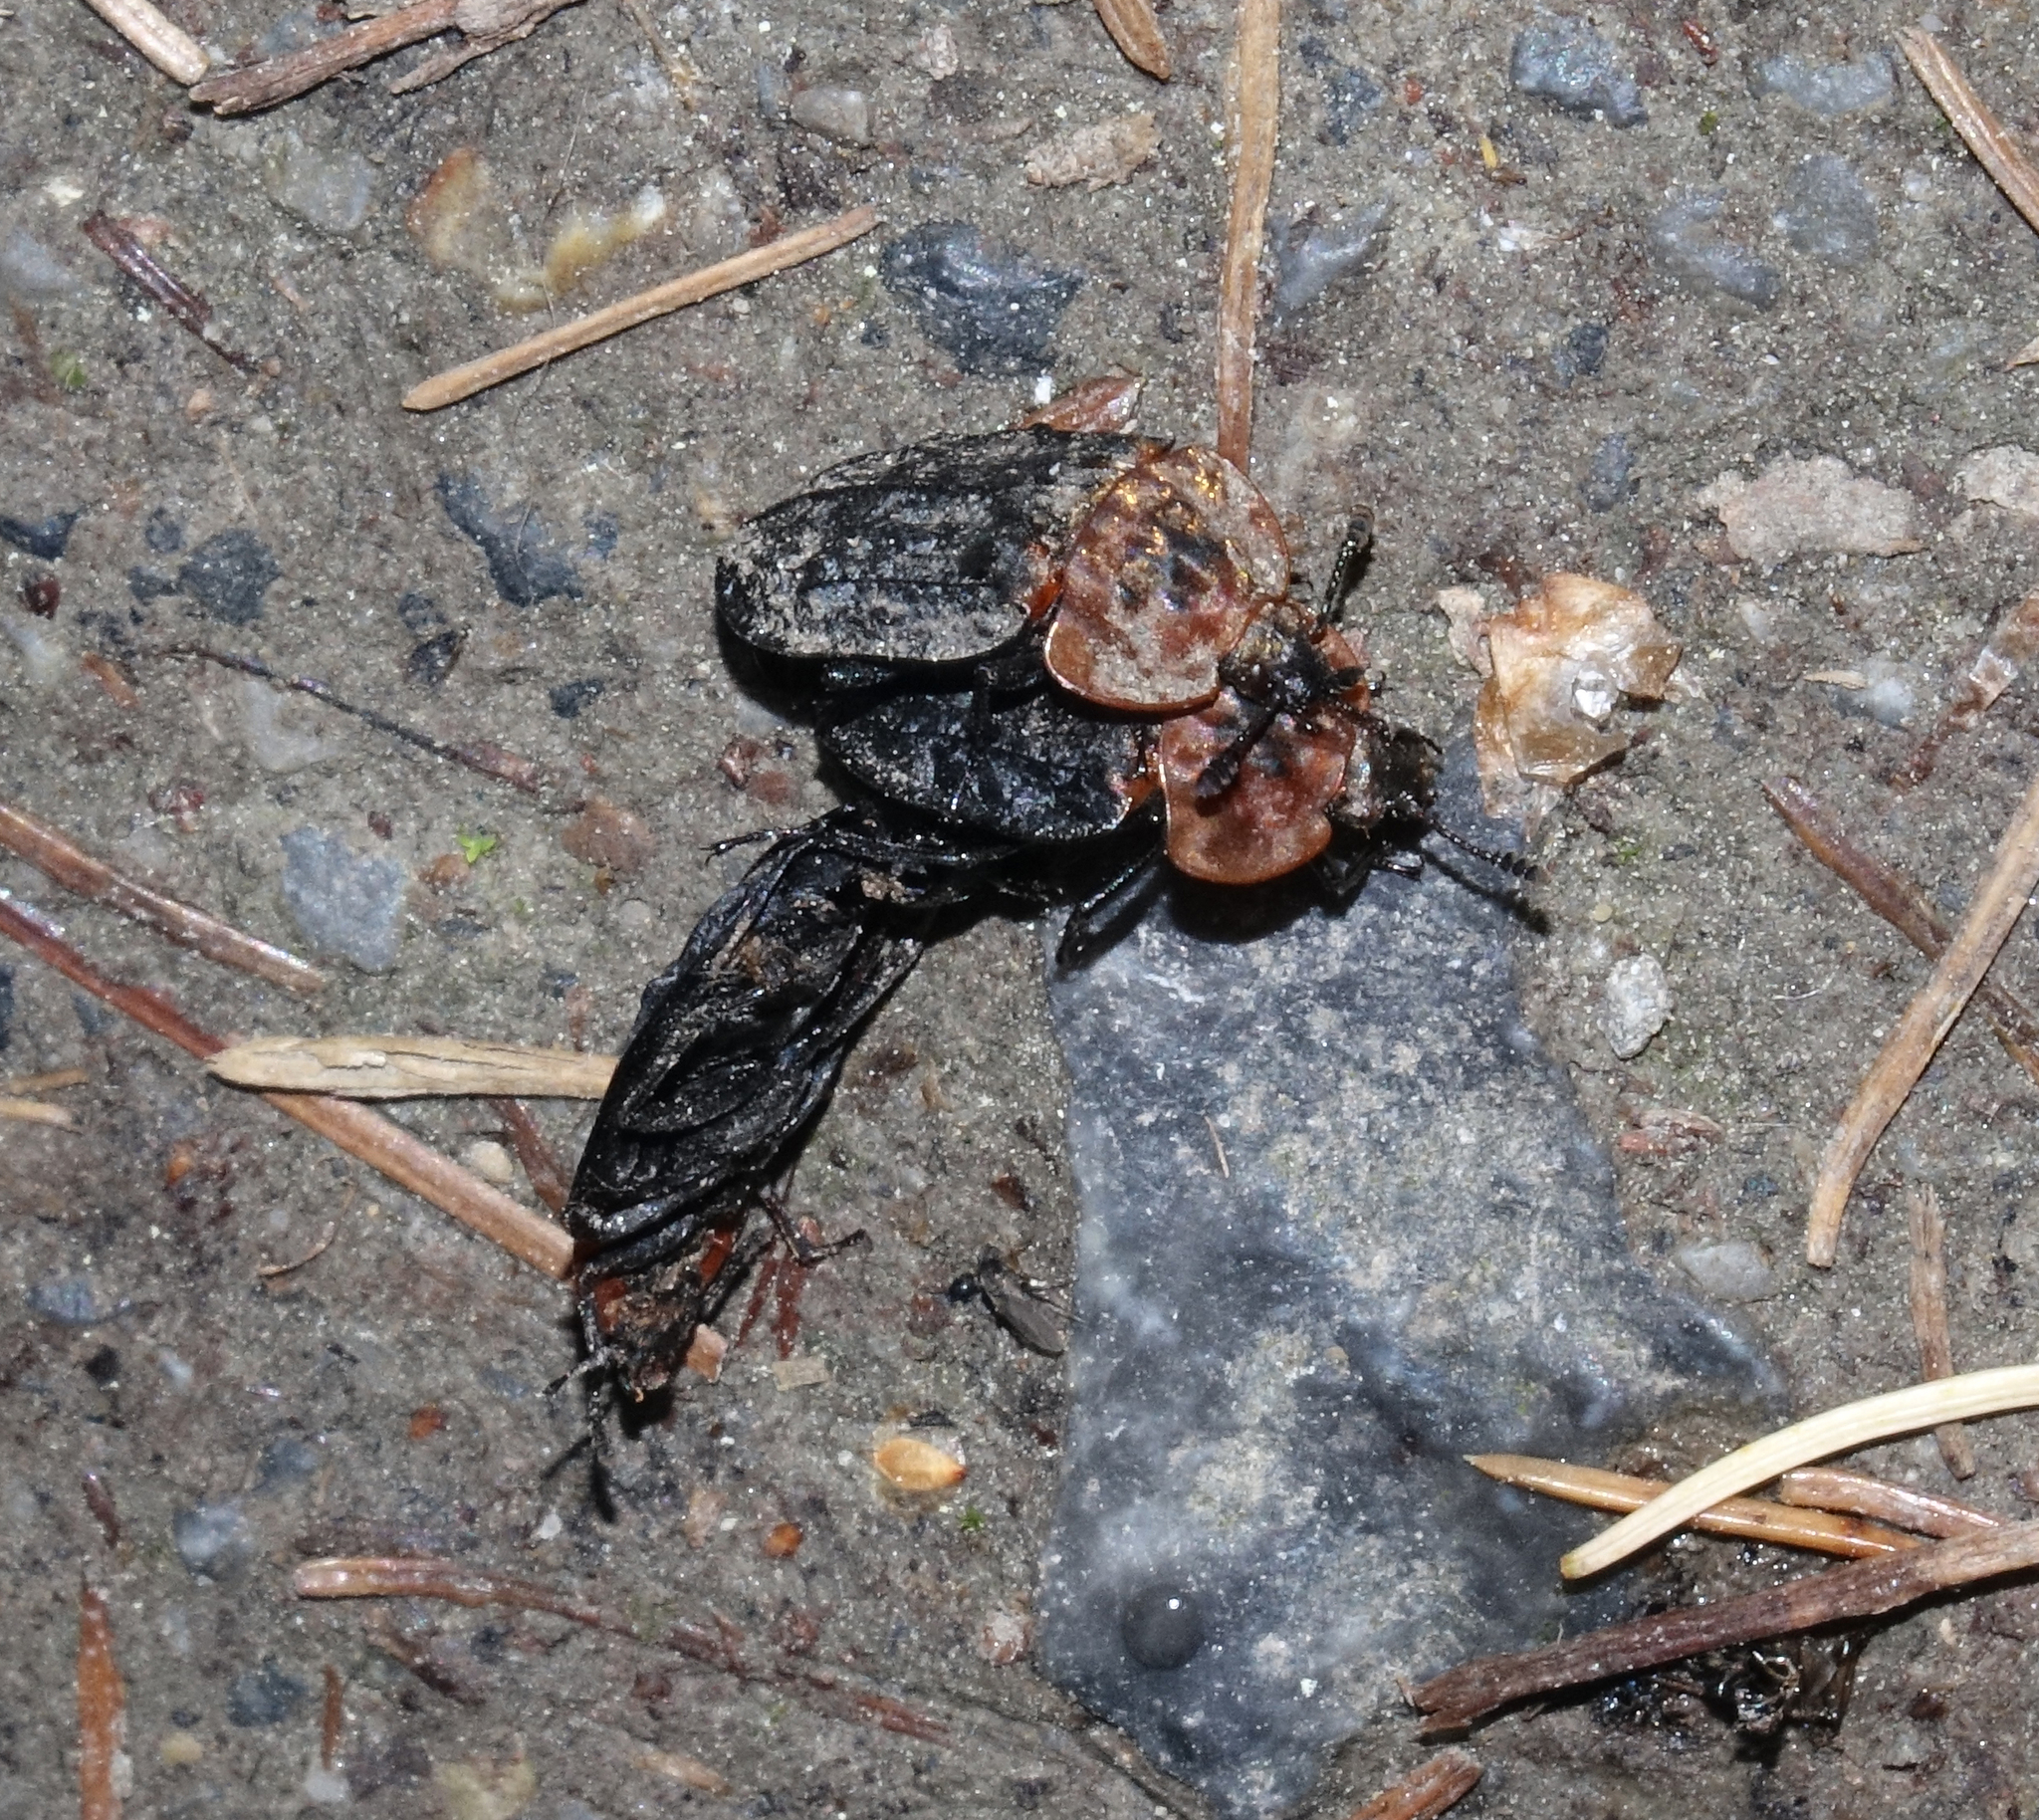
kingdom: Animalia
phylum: Arthropoda
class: Insecta
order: Coleoptera
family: Staphylinidae
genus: Oiceoptoma
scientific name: Oiceoptoma thoracicum
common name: Red-breasted carrion beetle
